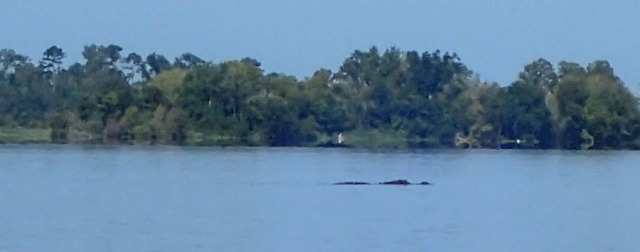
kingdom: Animalia
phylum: Chordata
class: Crocodylia
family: Alligatoridae
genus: Alligator
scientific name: Alligator mississippiensis
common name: American alligator
